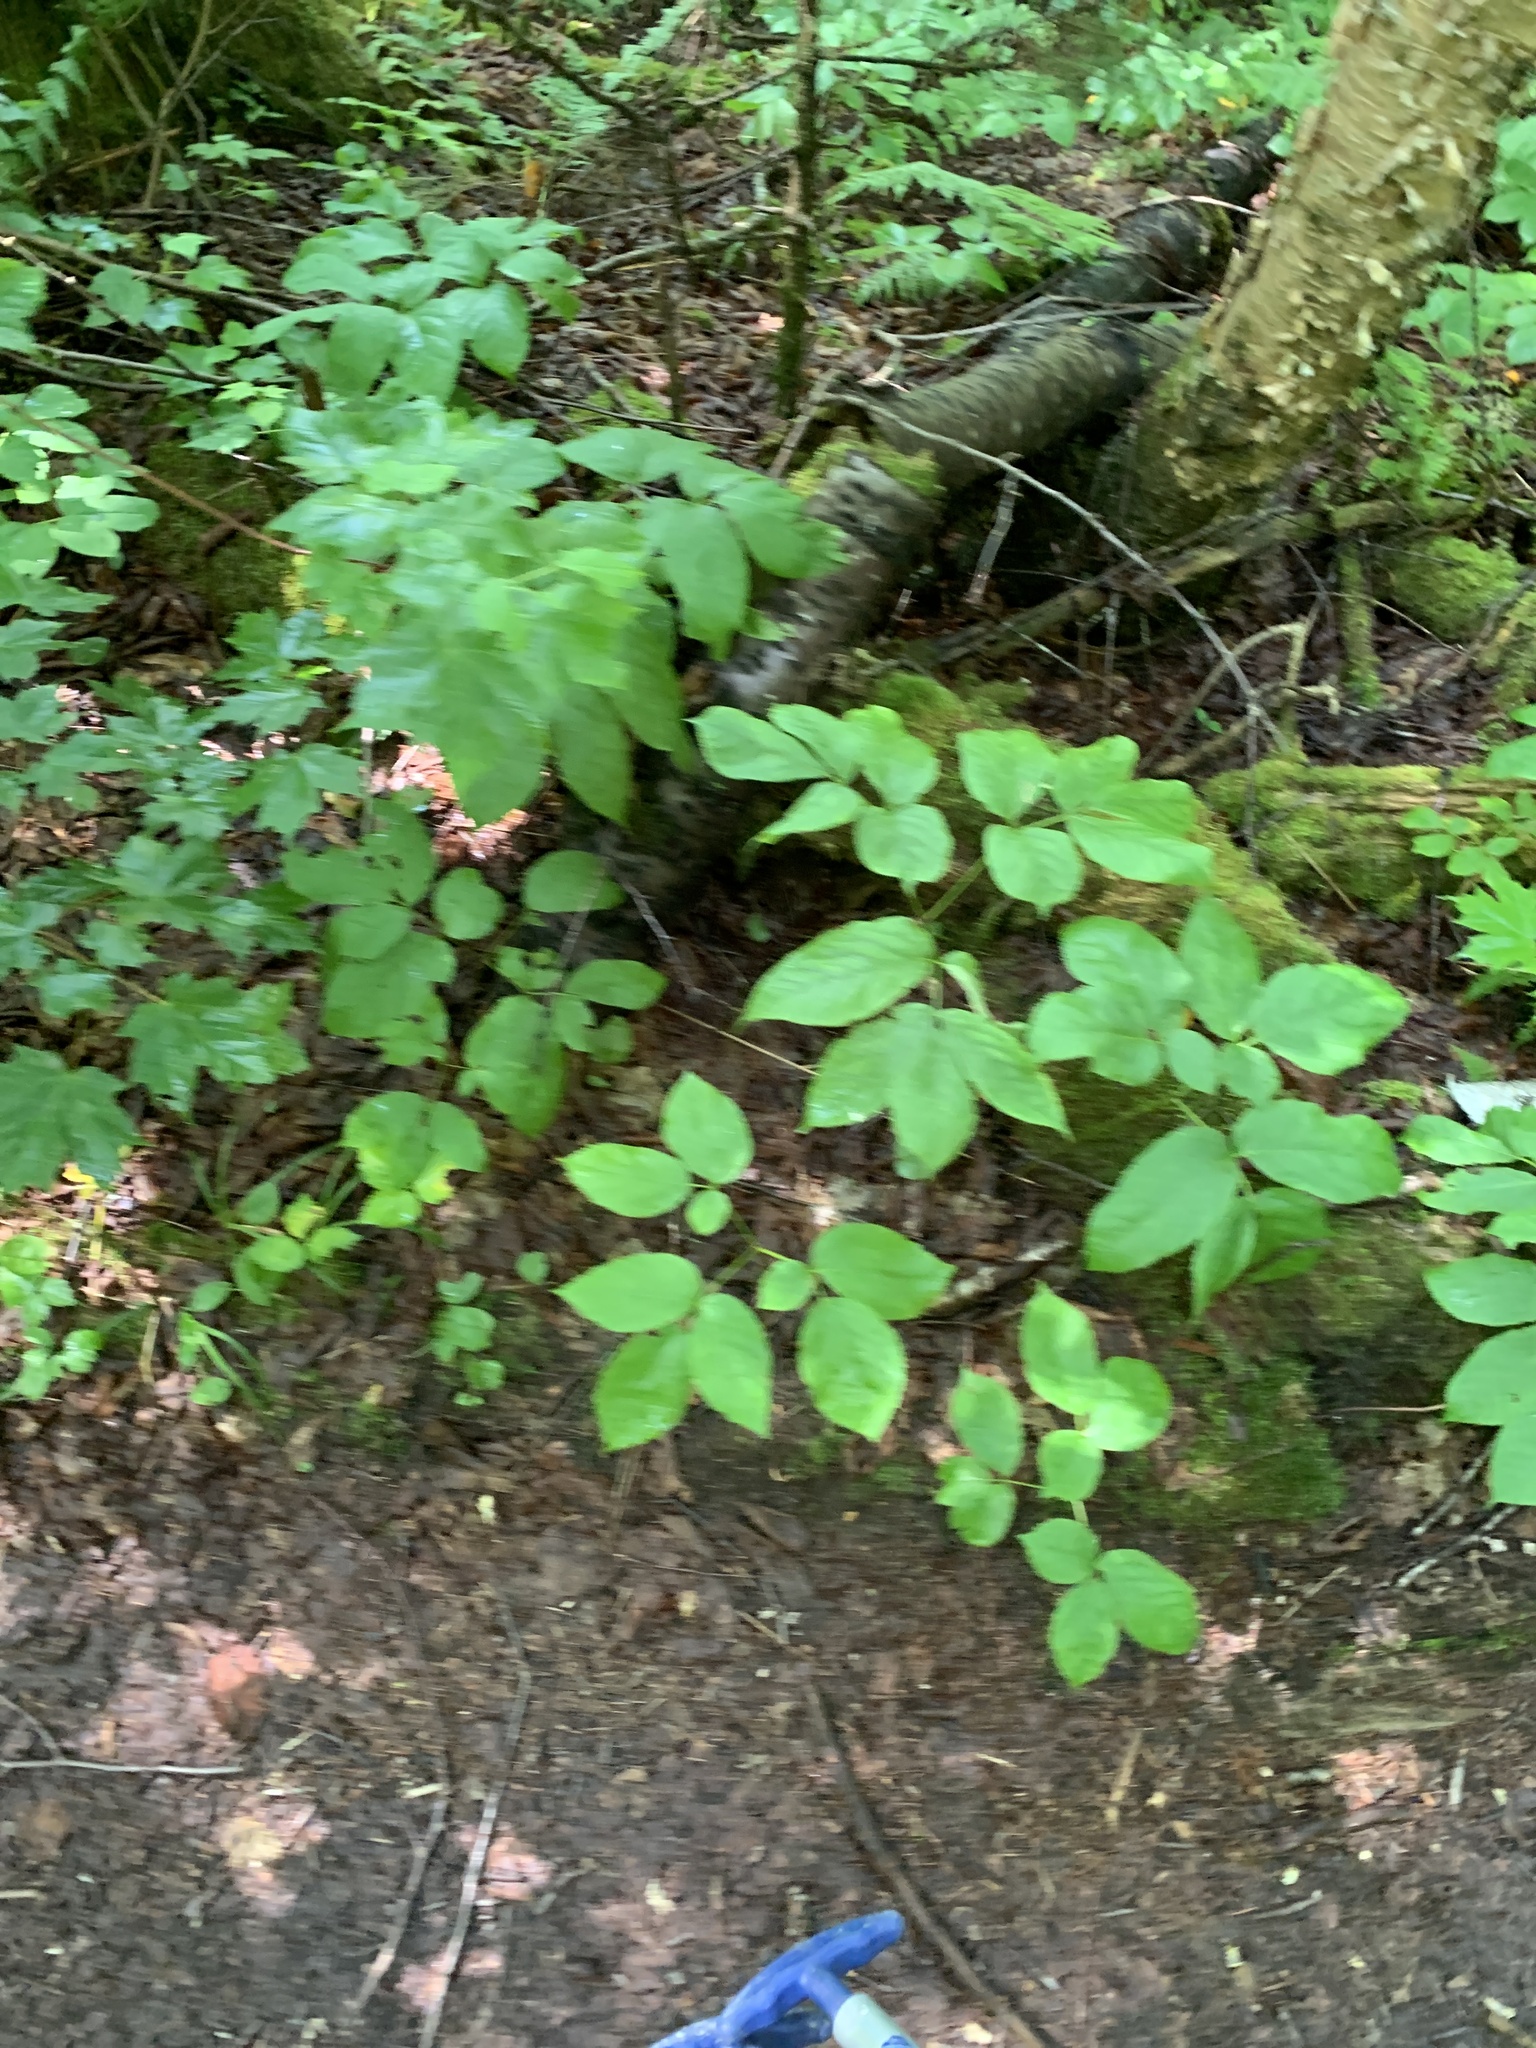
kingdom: Plantae
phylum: Tracheophyta
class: Magnoliopsida
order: Apiales
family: Araliaceae
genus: Aralia
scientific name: Aralia nudicaulis
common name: Wild sarsaparilla
